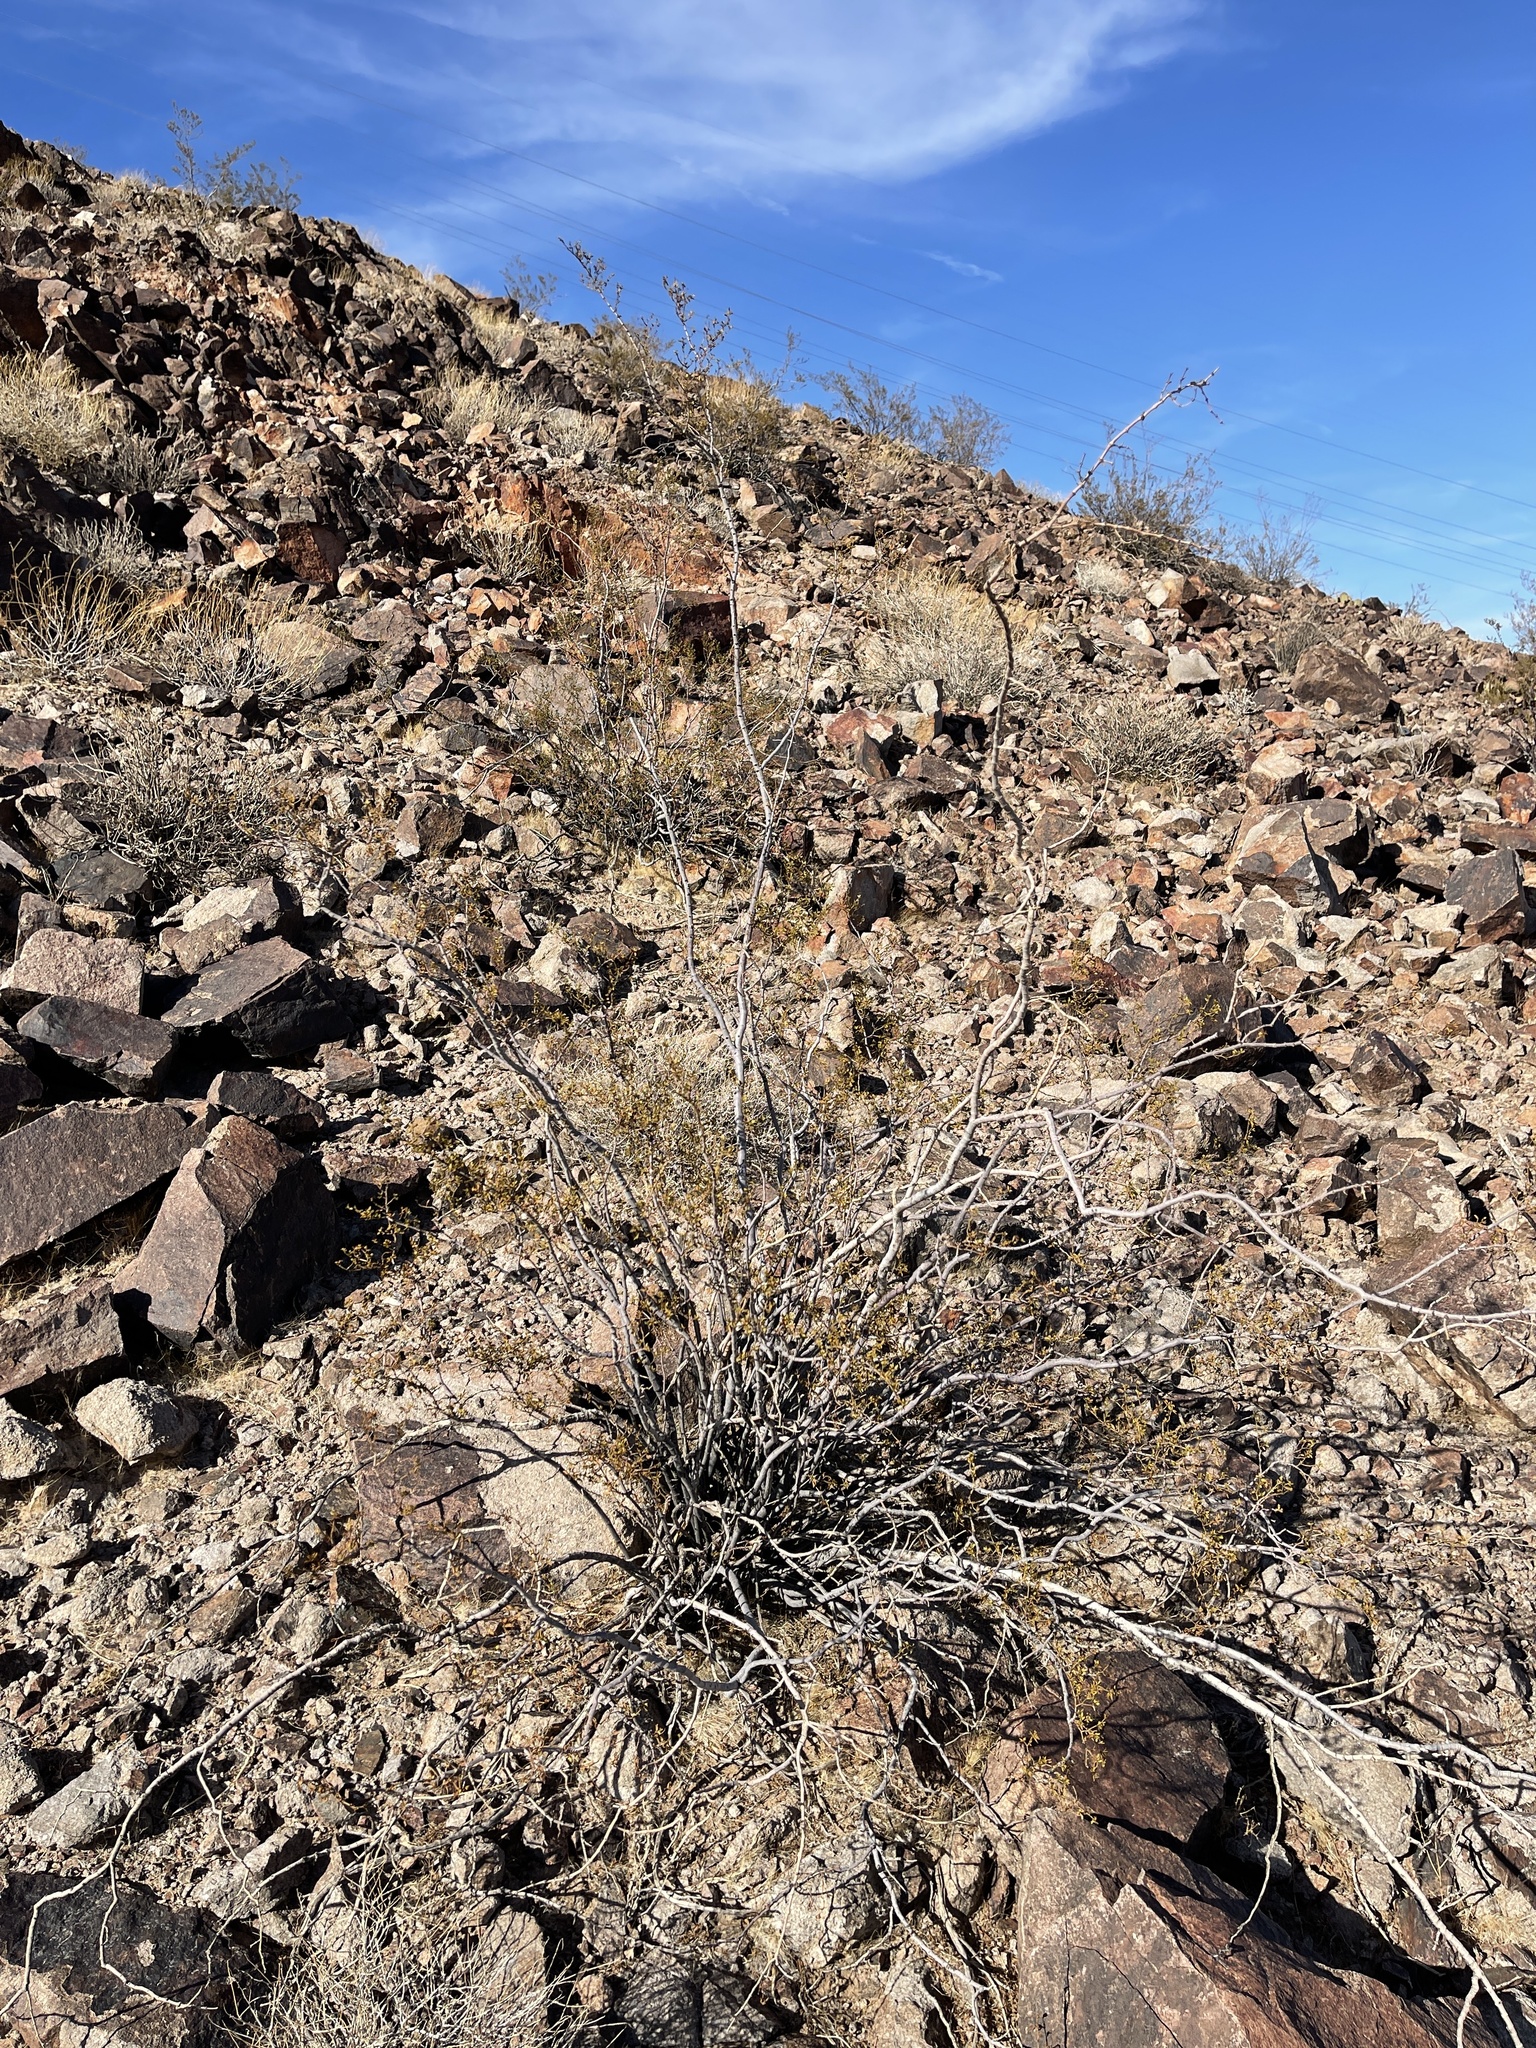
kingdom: Plantae
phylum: Tracheophyta
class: Magnoliopsida
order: Zygophyllales
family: Zygophyllaceae
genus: Larrea
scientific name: Larrea tridentata
